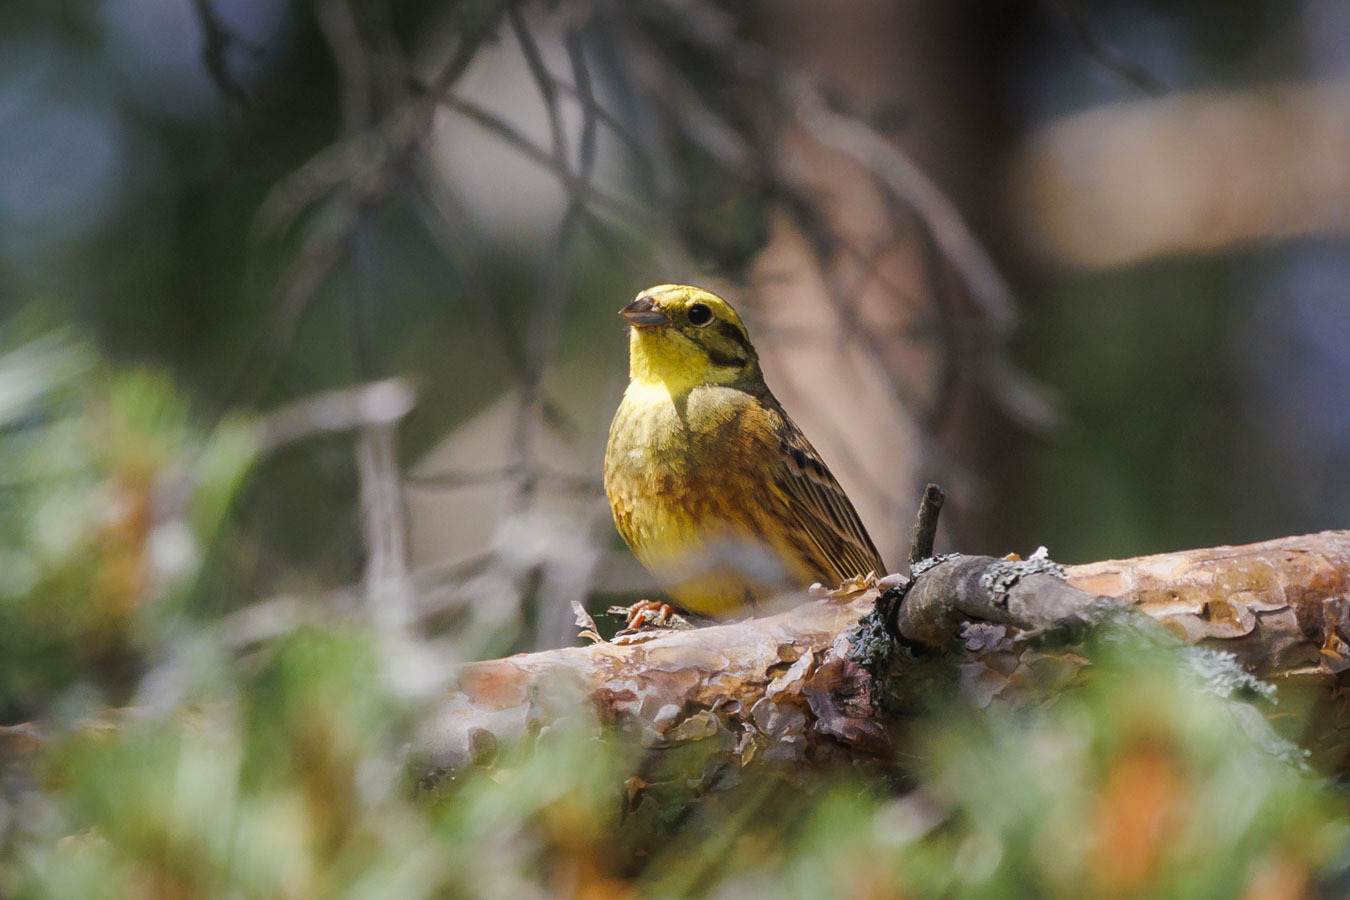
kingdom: Animalia
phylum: Chordata
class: Aves
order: Passeriformes
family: Emberizidae
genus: Emberiza
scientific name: Emberiza citrinella
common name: Yellowhammer
